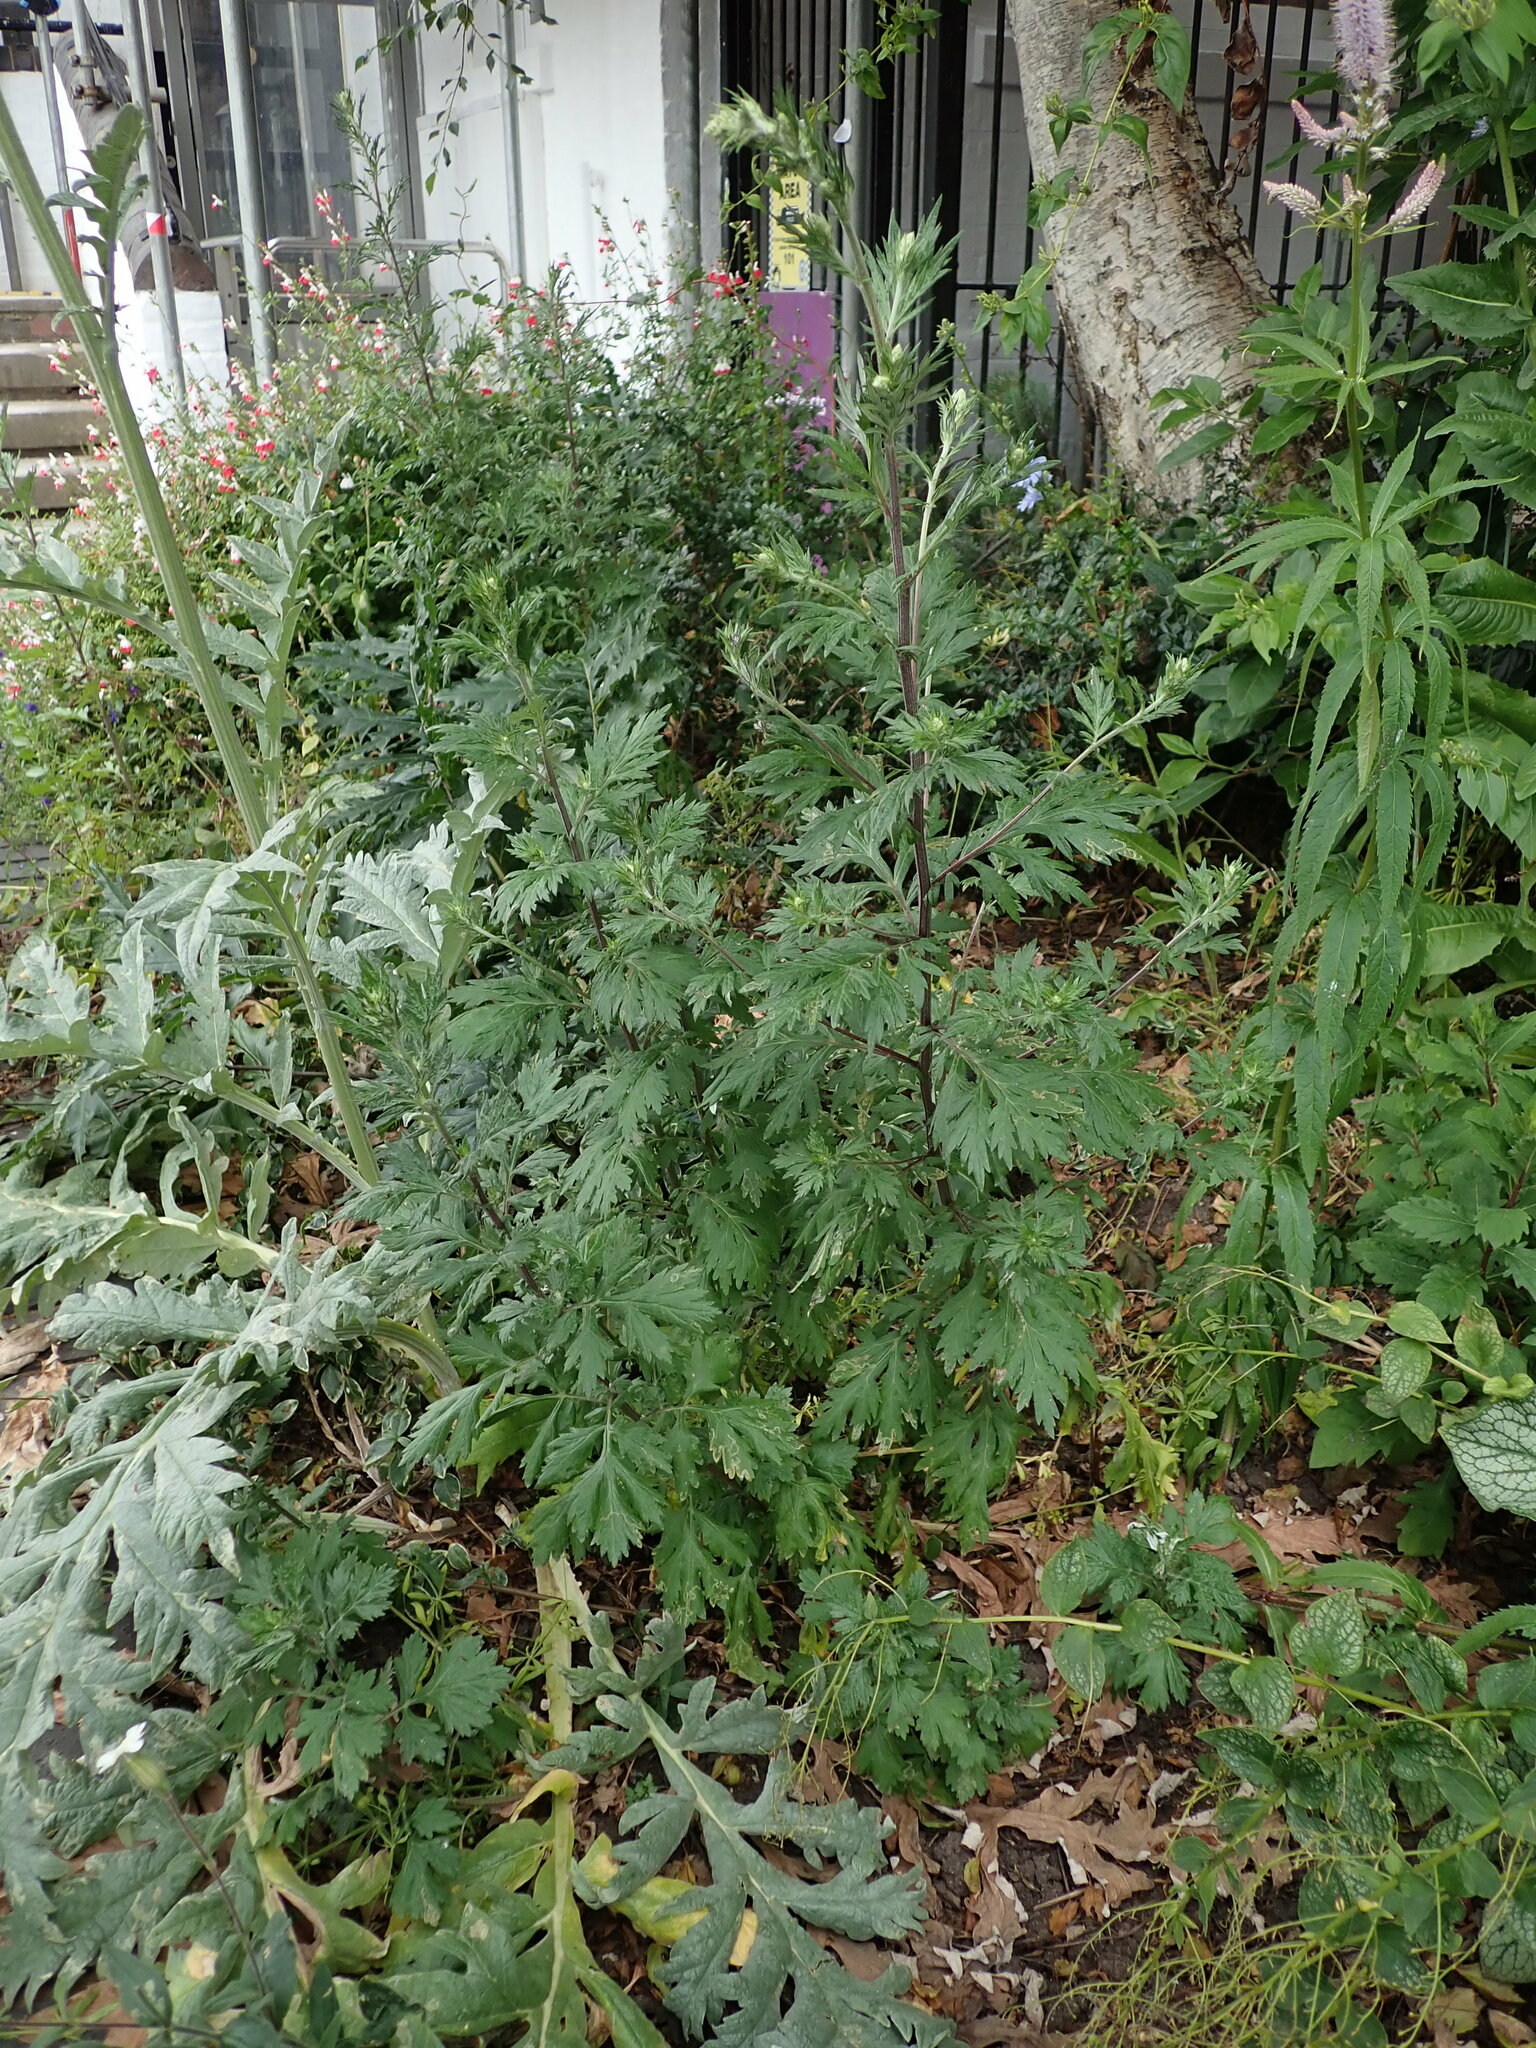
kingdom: Plantae
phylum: Tracheophyta
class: Magnoliopsida
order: Asterales
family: Asteraceae
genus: Artemisia
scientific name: Artemisia vulgaris
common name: Mugwort
